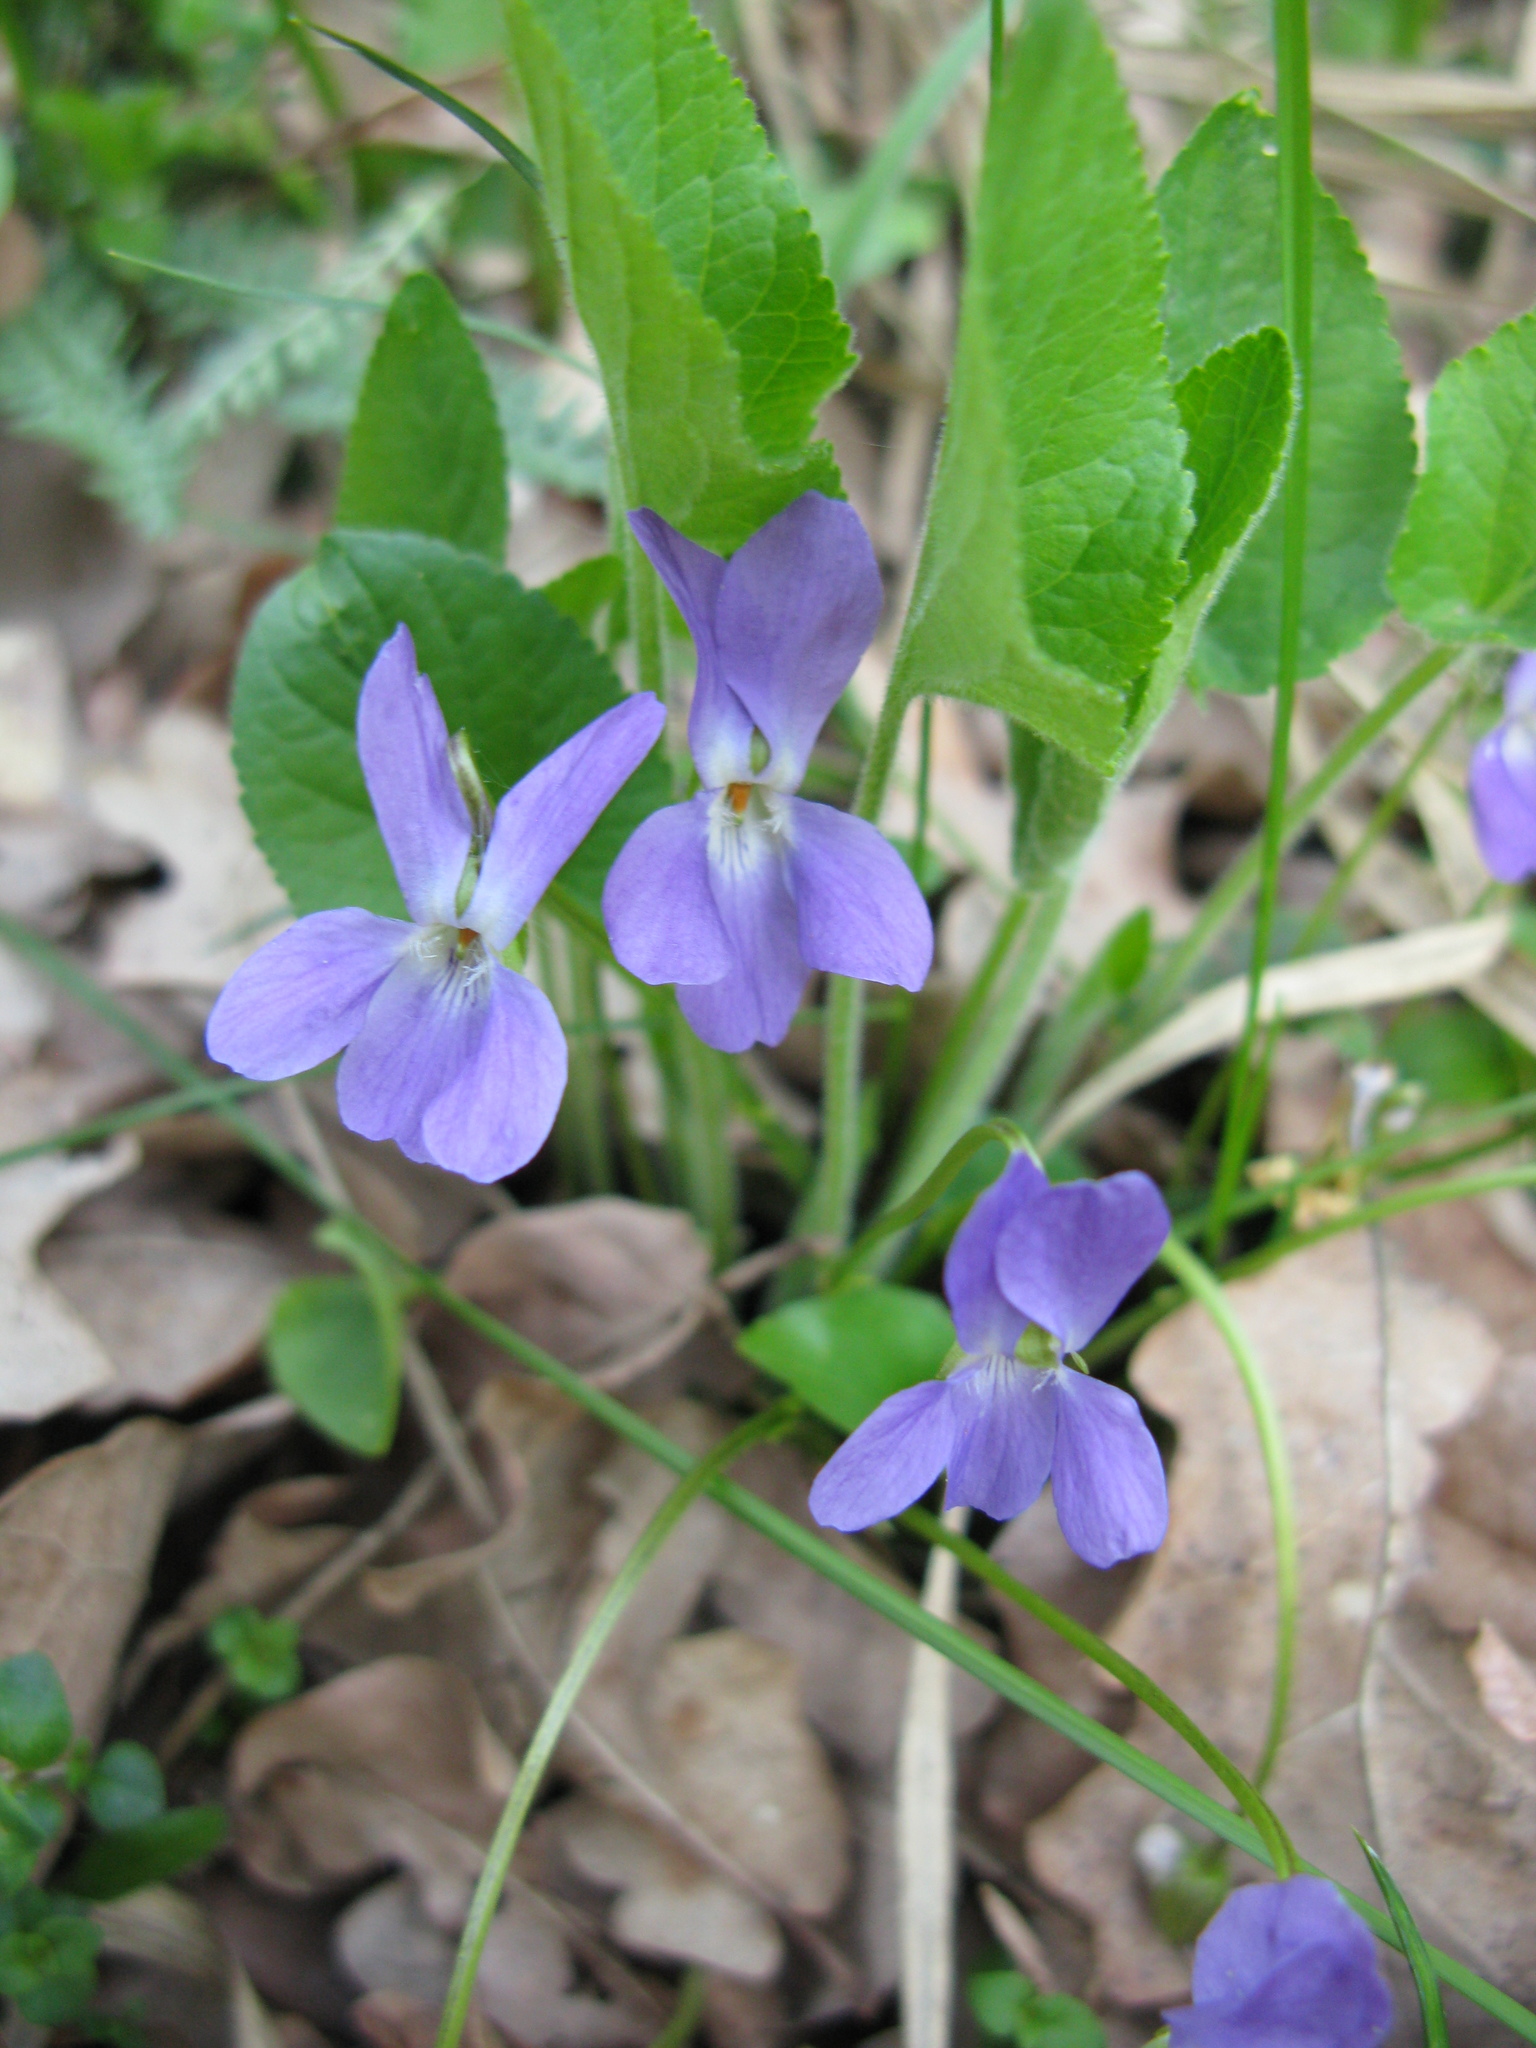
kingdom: Plantae
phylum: Tracheophyta
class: Magnoliopsida
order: Malpighiales
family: Violaceae
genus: Viola
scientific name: Viola hirta
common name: Hairy violet
